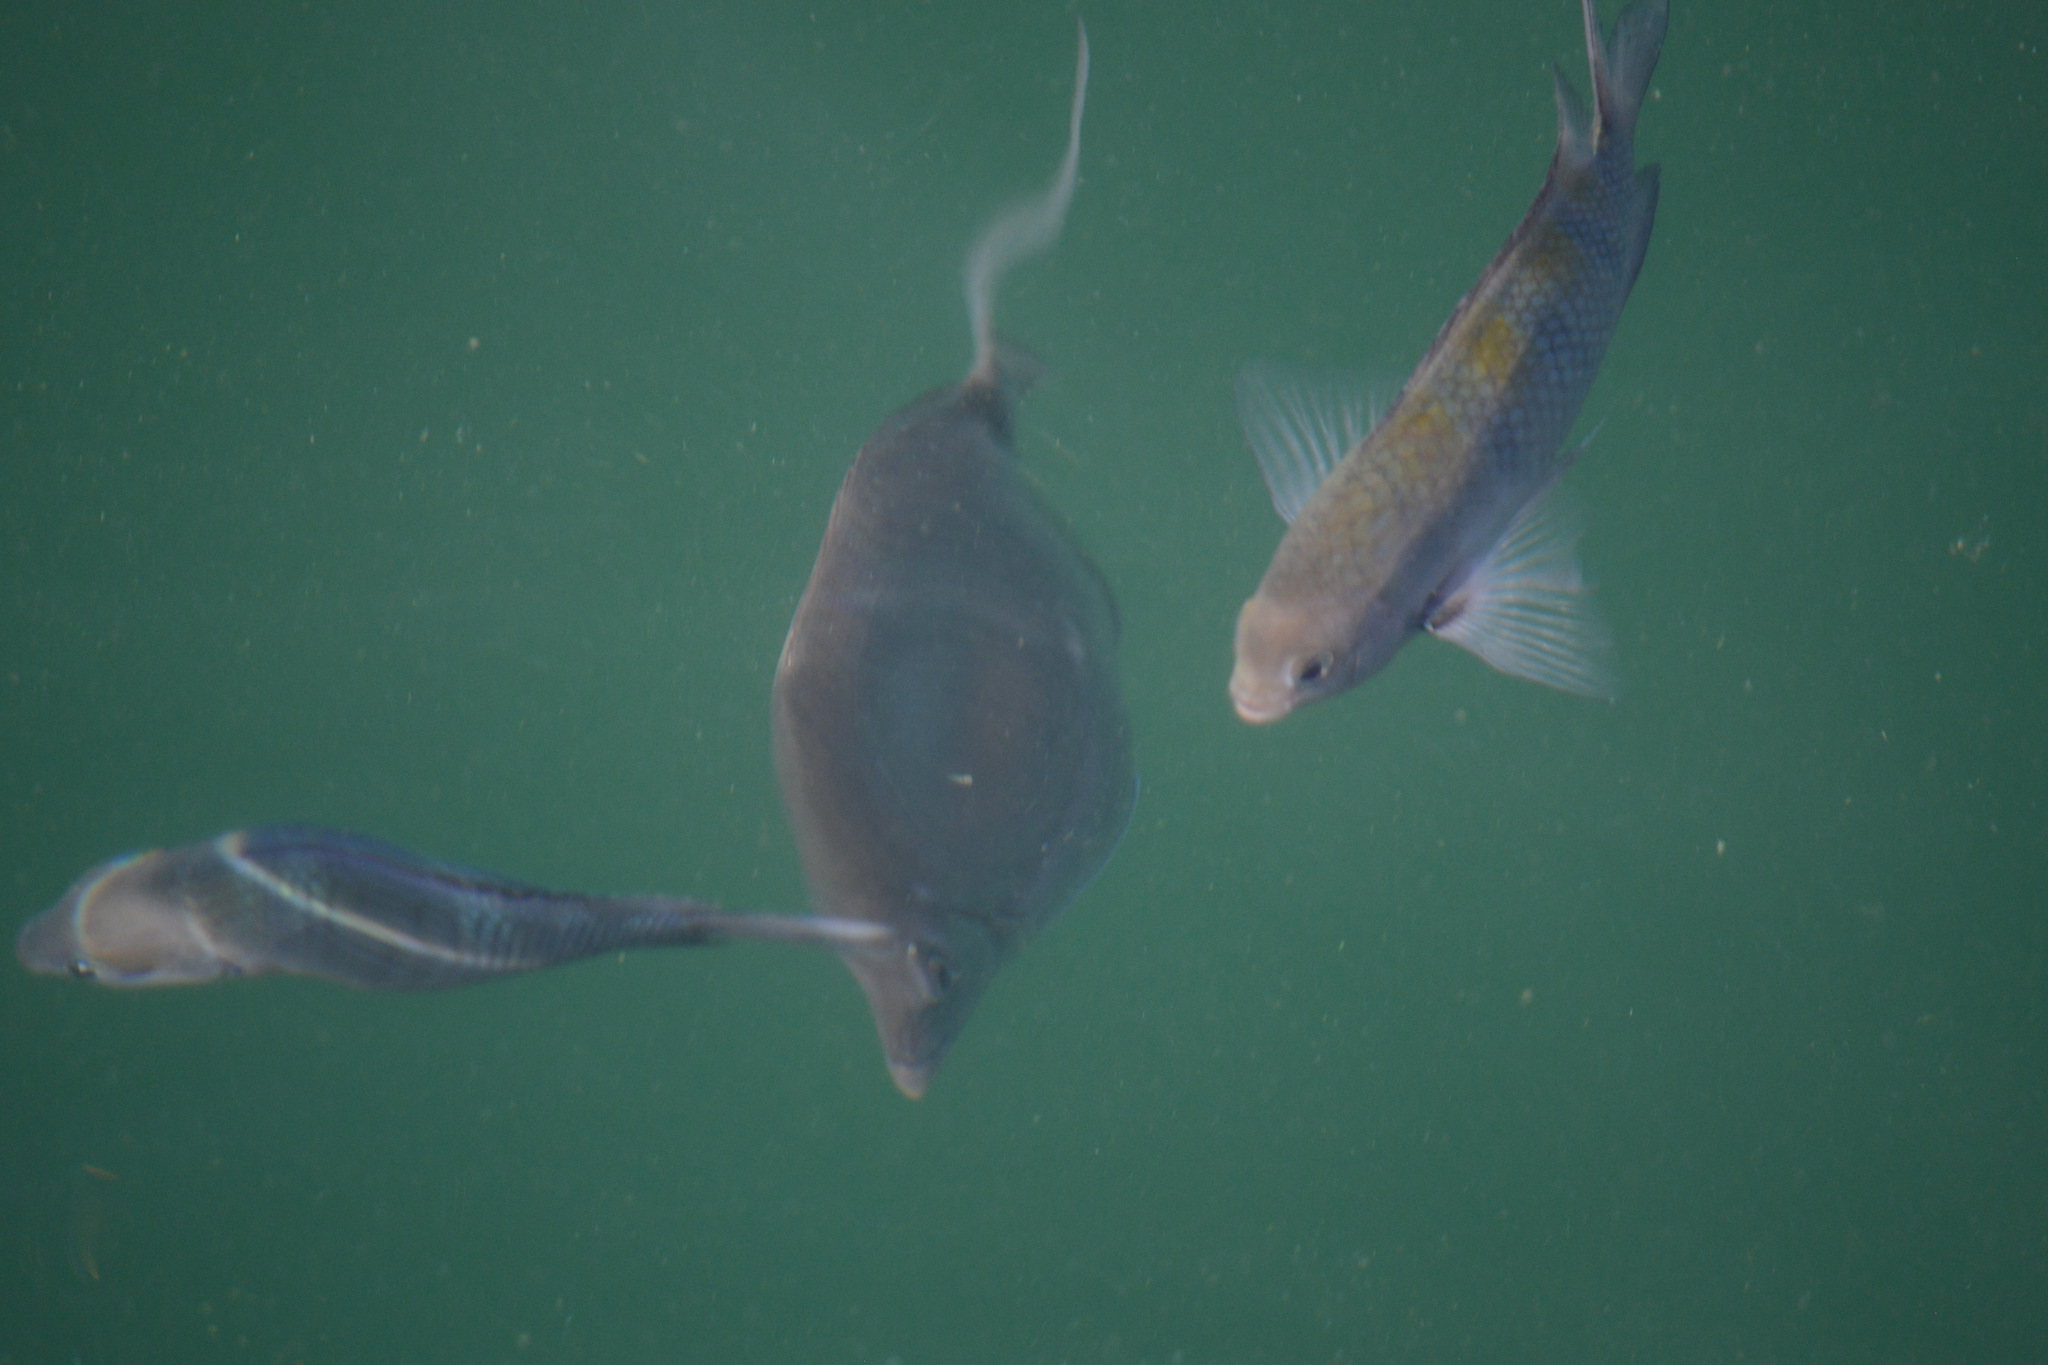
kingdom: Animalia
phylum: Chordata
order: Perciformes
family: Pomacentridae
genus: Abudefduf
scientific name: Abudefduf saxatilis
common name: Sergeant major
